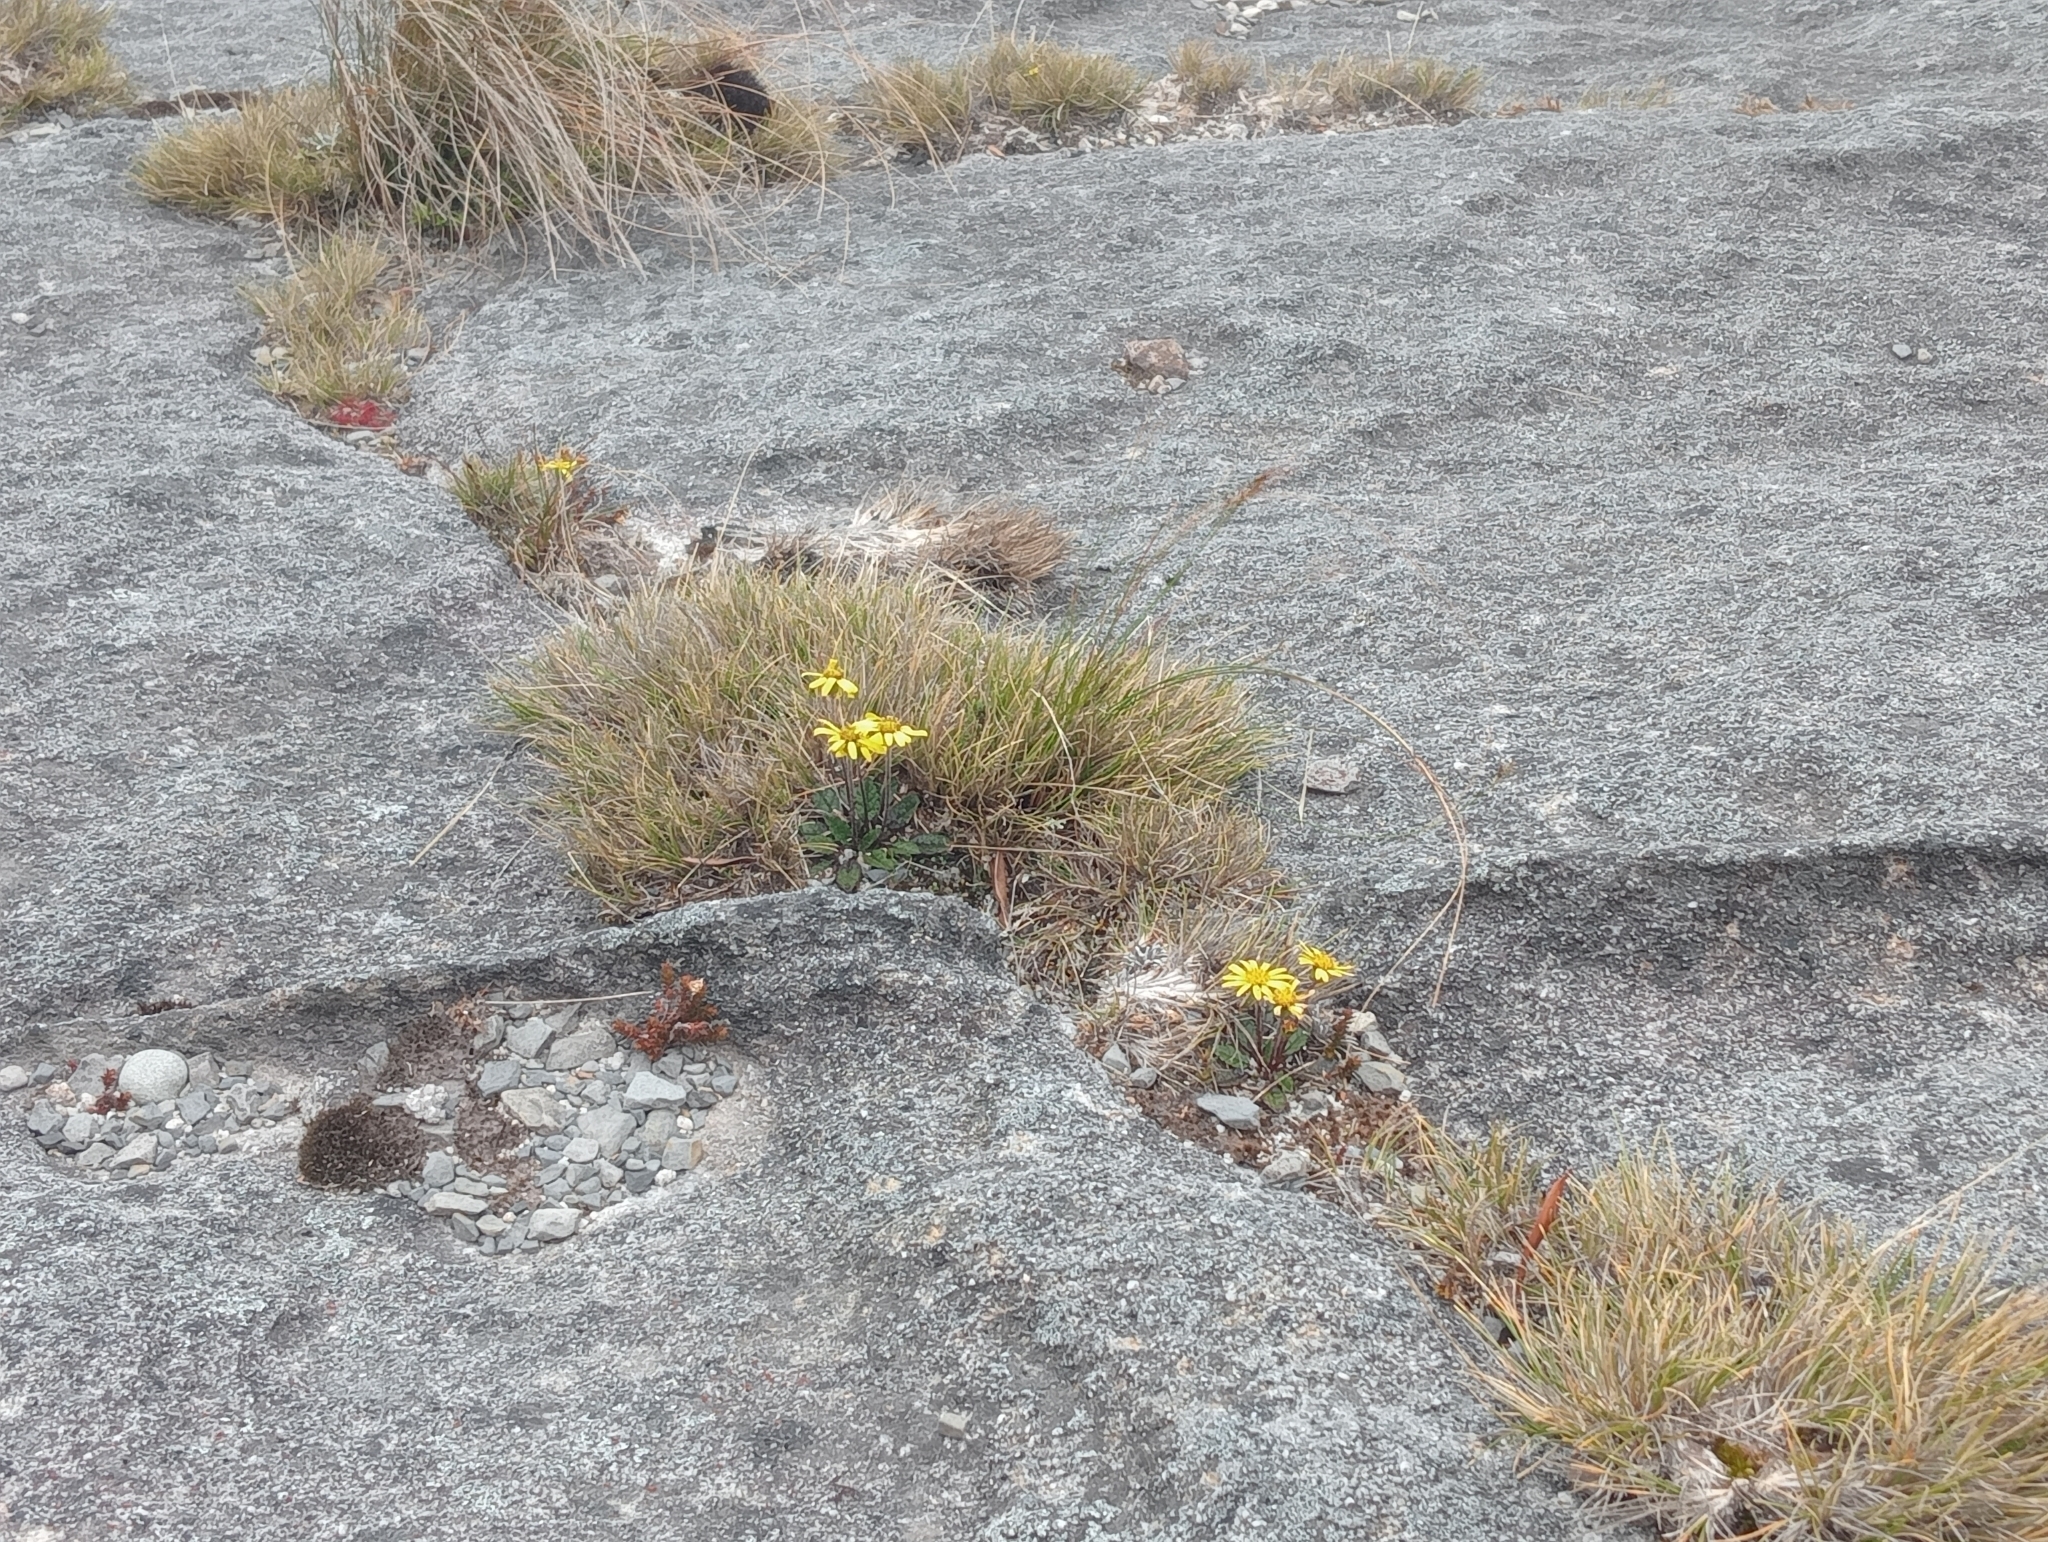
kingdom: Plantae
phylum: Tracheophyta
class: Magnoliopsida
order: Asterales
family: Asteraceae
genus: Brachyglottis
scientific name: Brachyglottis bellidioides
